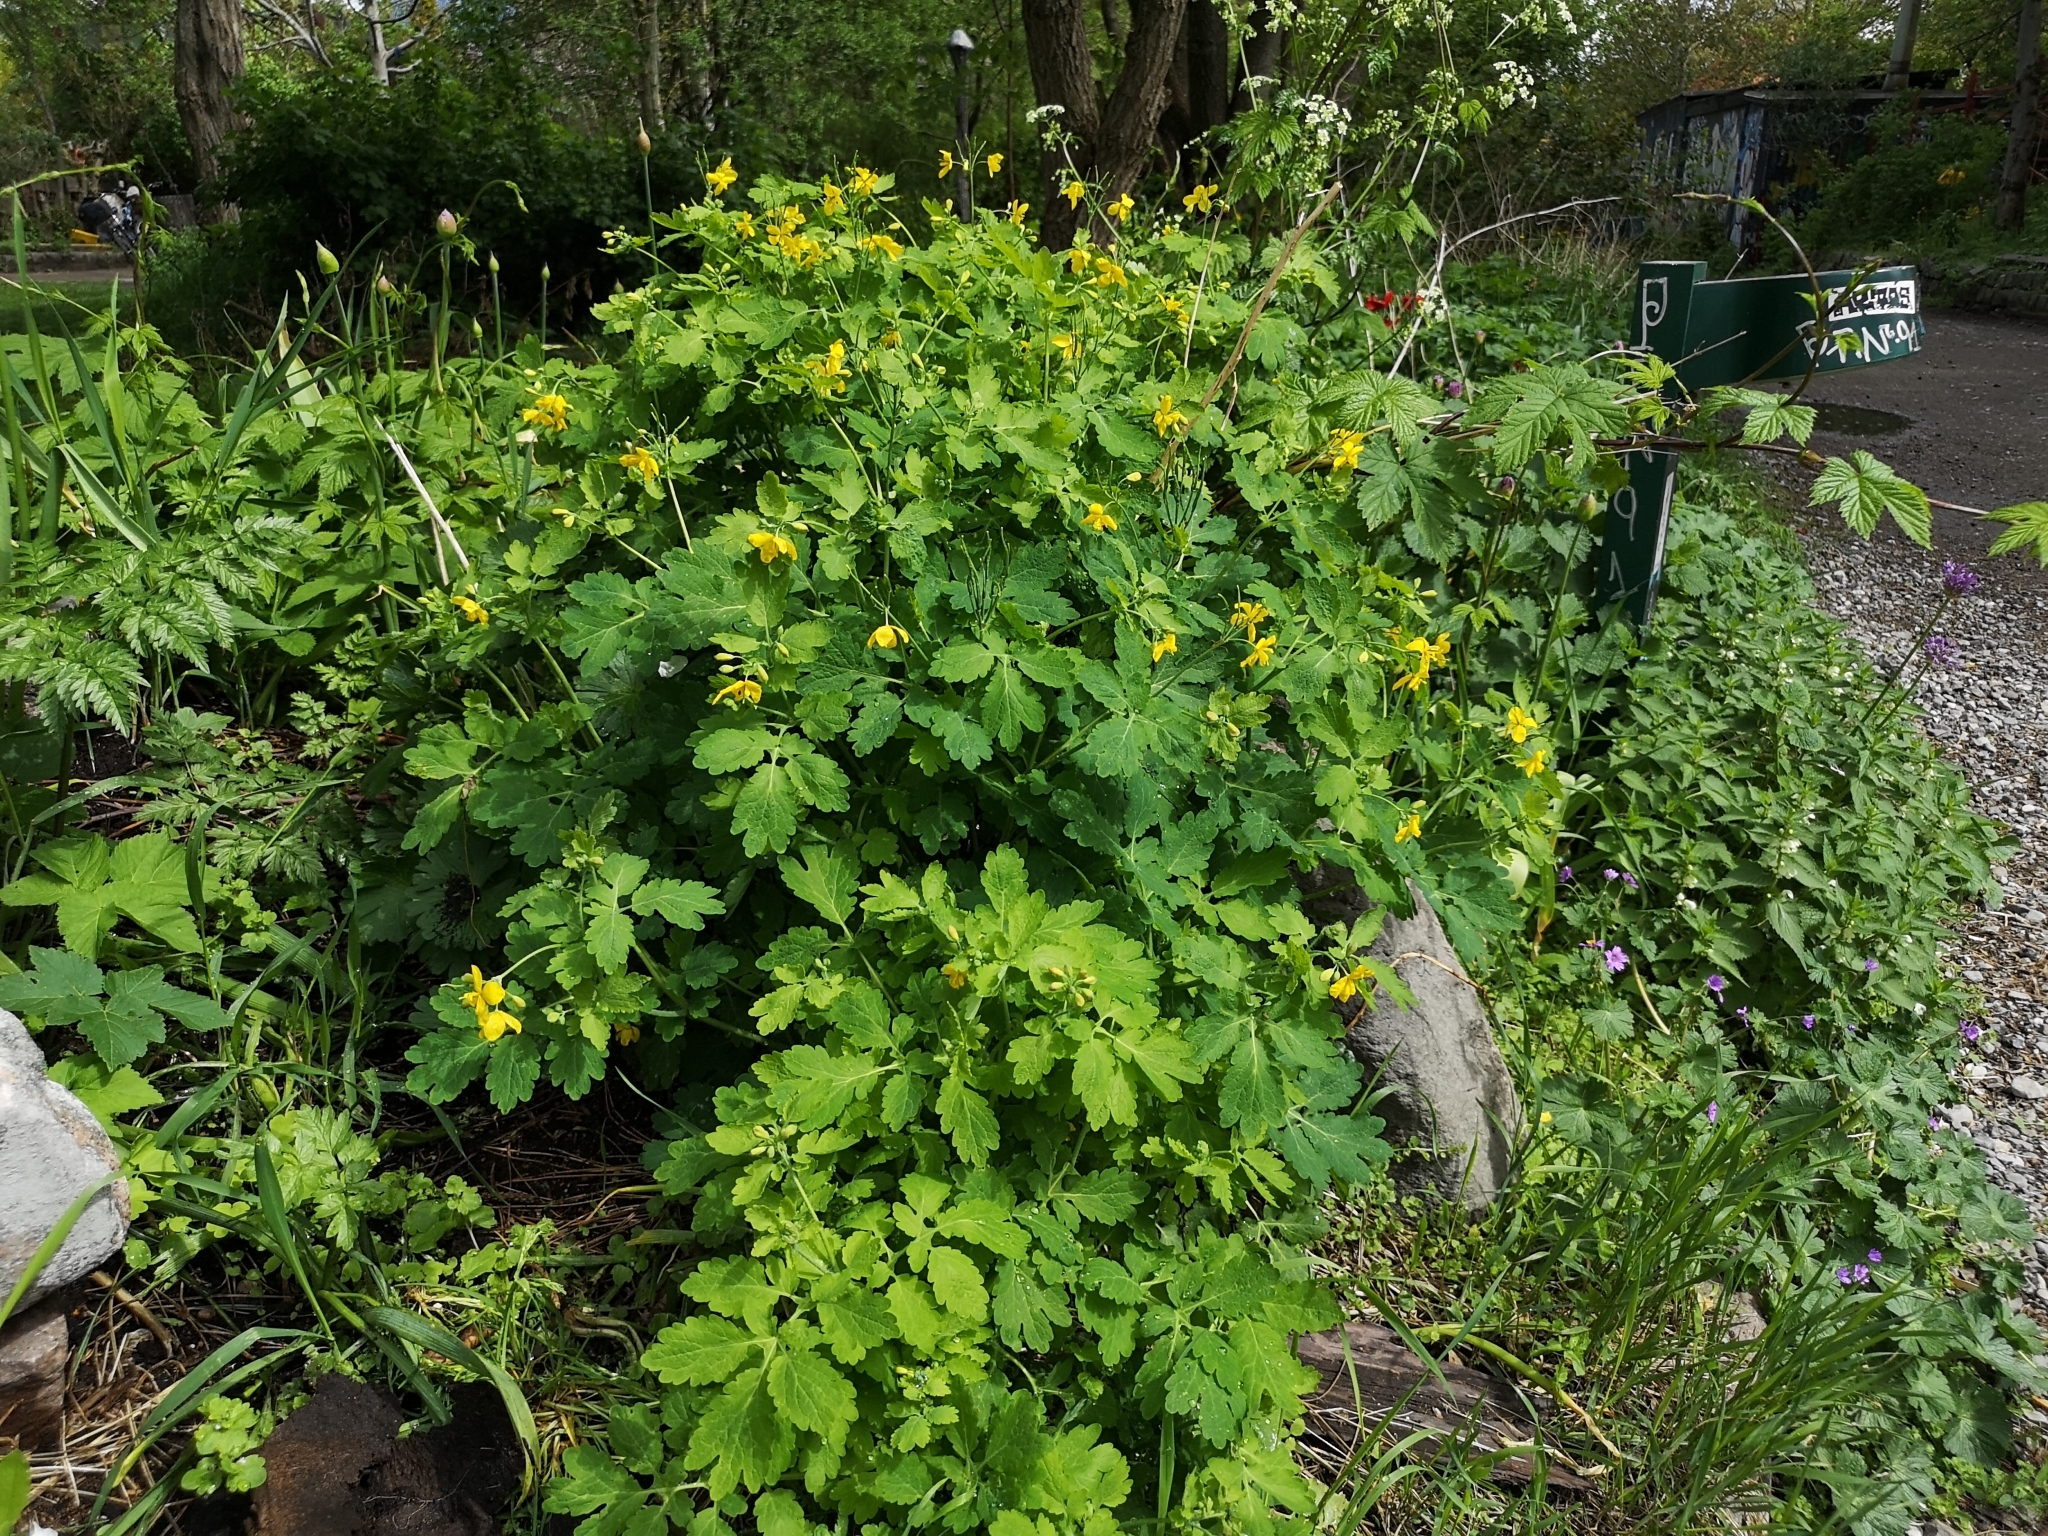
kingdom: Plantae
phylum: Tracheophyta
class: Magnoliopsida
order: Ranunculales
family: Papaveraceae
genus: Chelidonium
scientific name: Chelidonium majus
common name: Greater celandine
